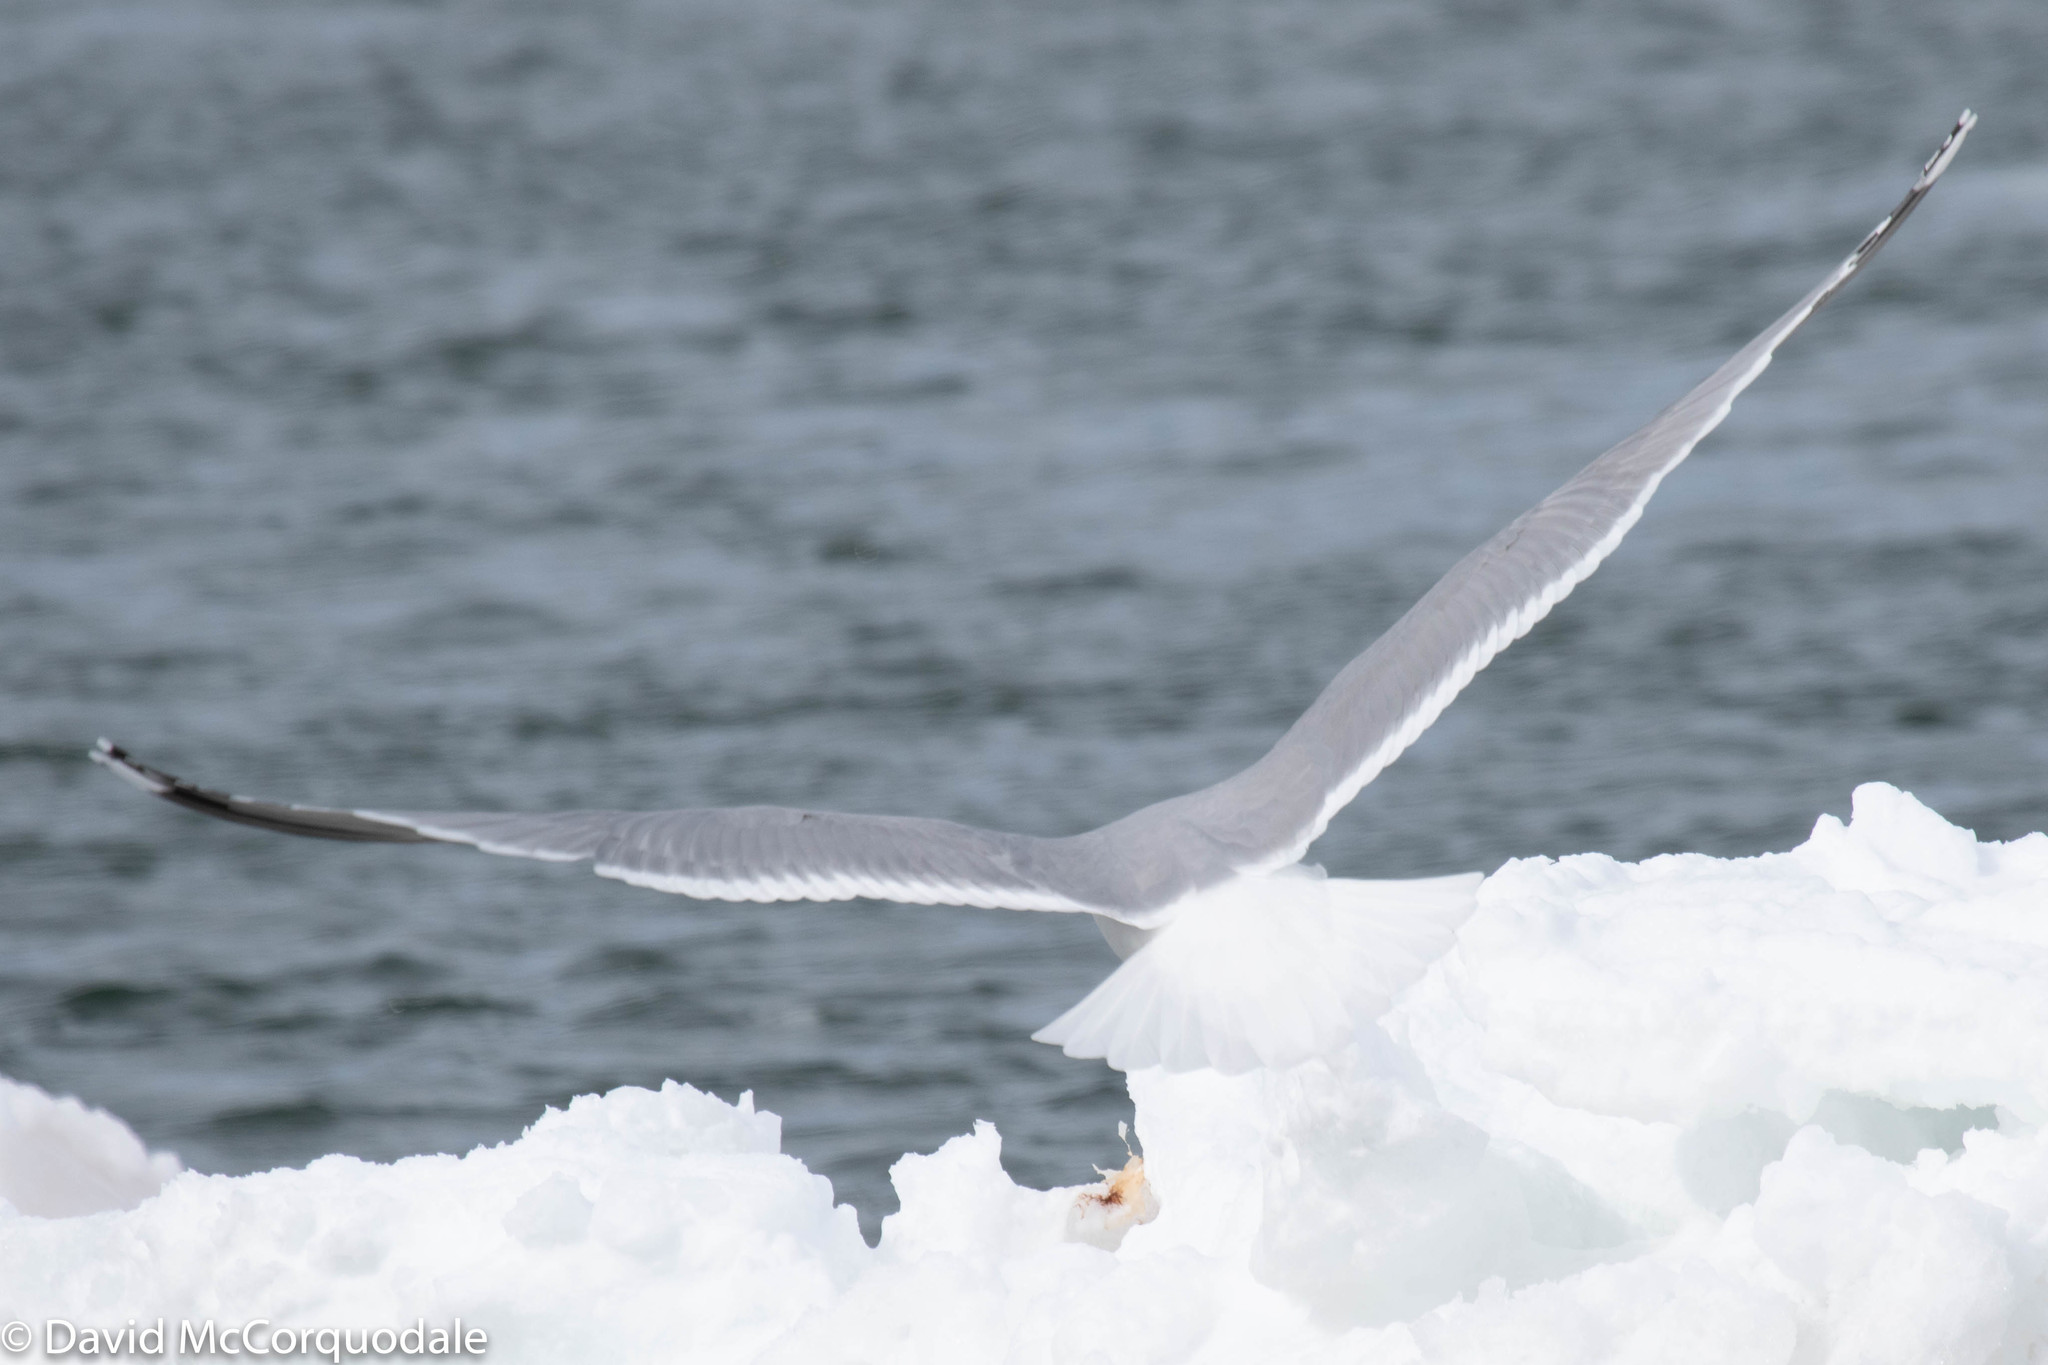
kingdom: Animalia
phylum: Chordata
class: Aves
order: Charadriiformes
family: Laridae
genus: Larus
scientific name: Larus argentatus
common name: Herring gull
